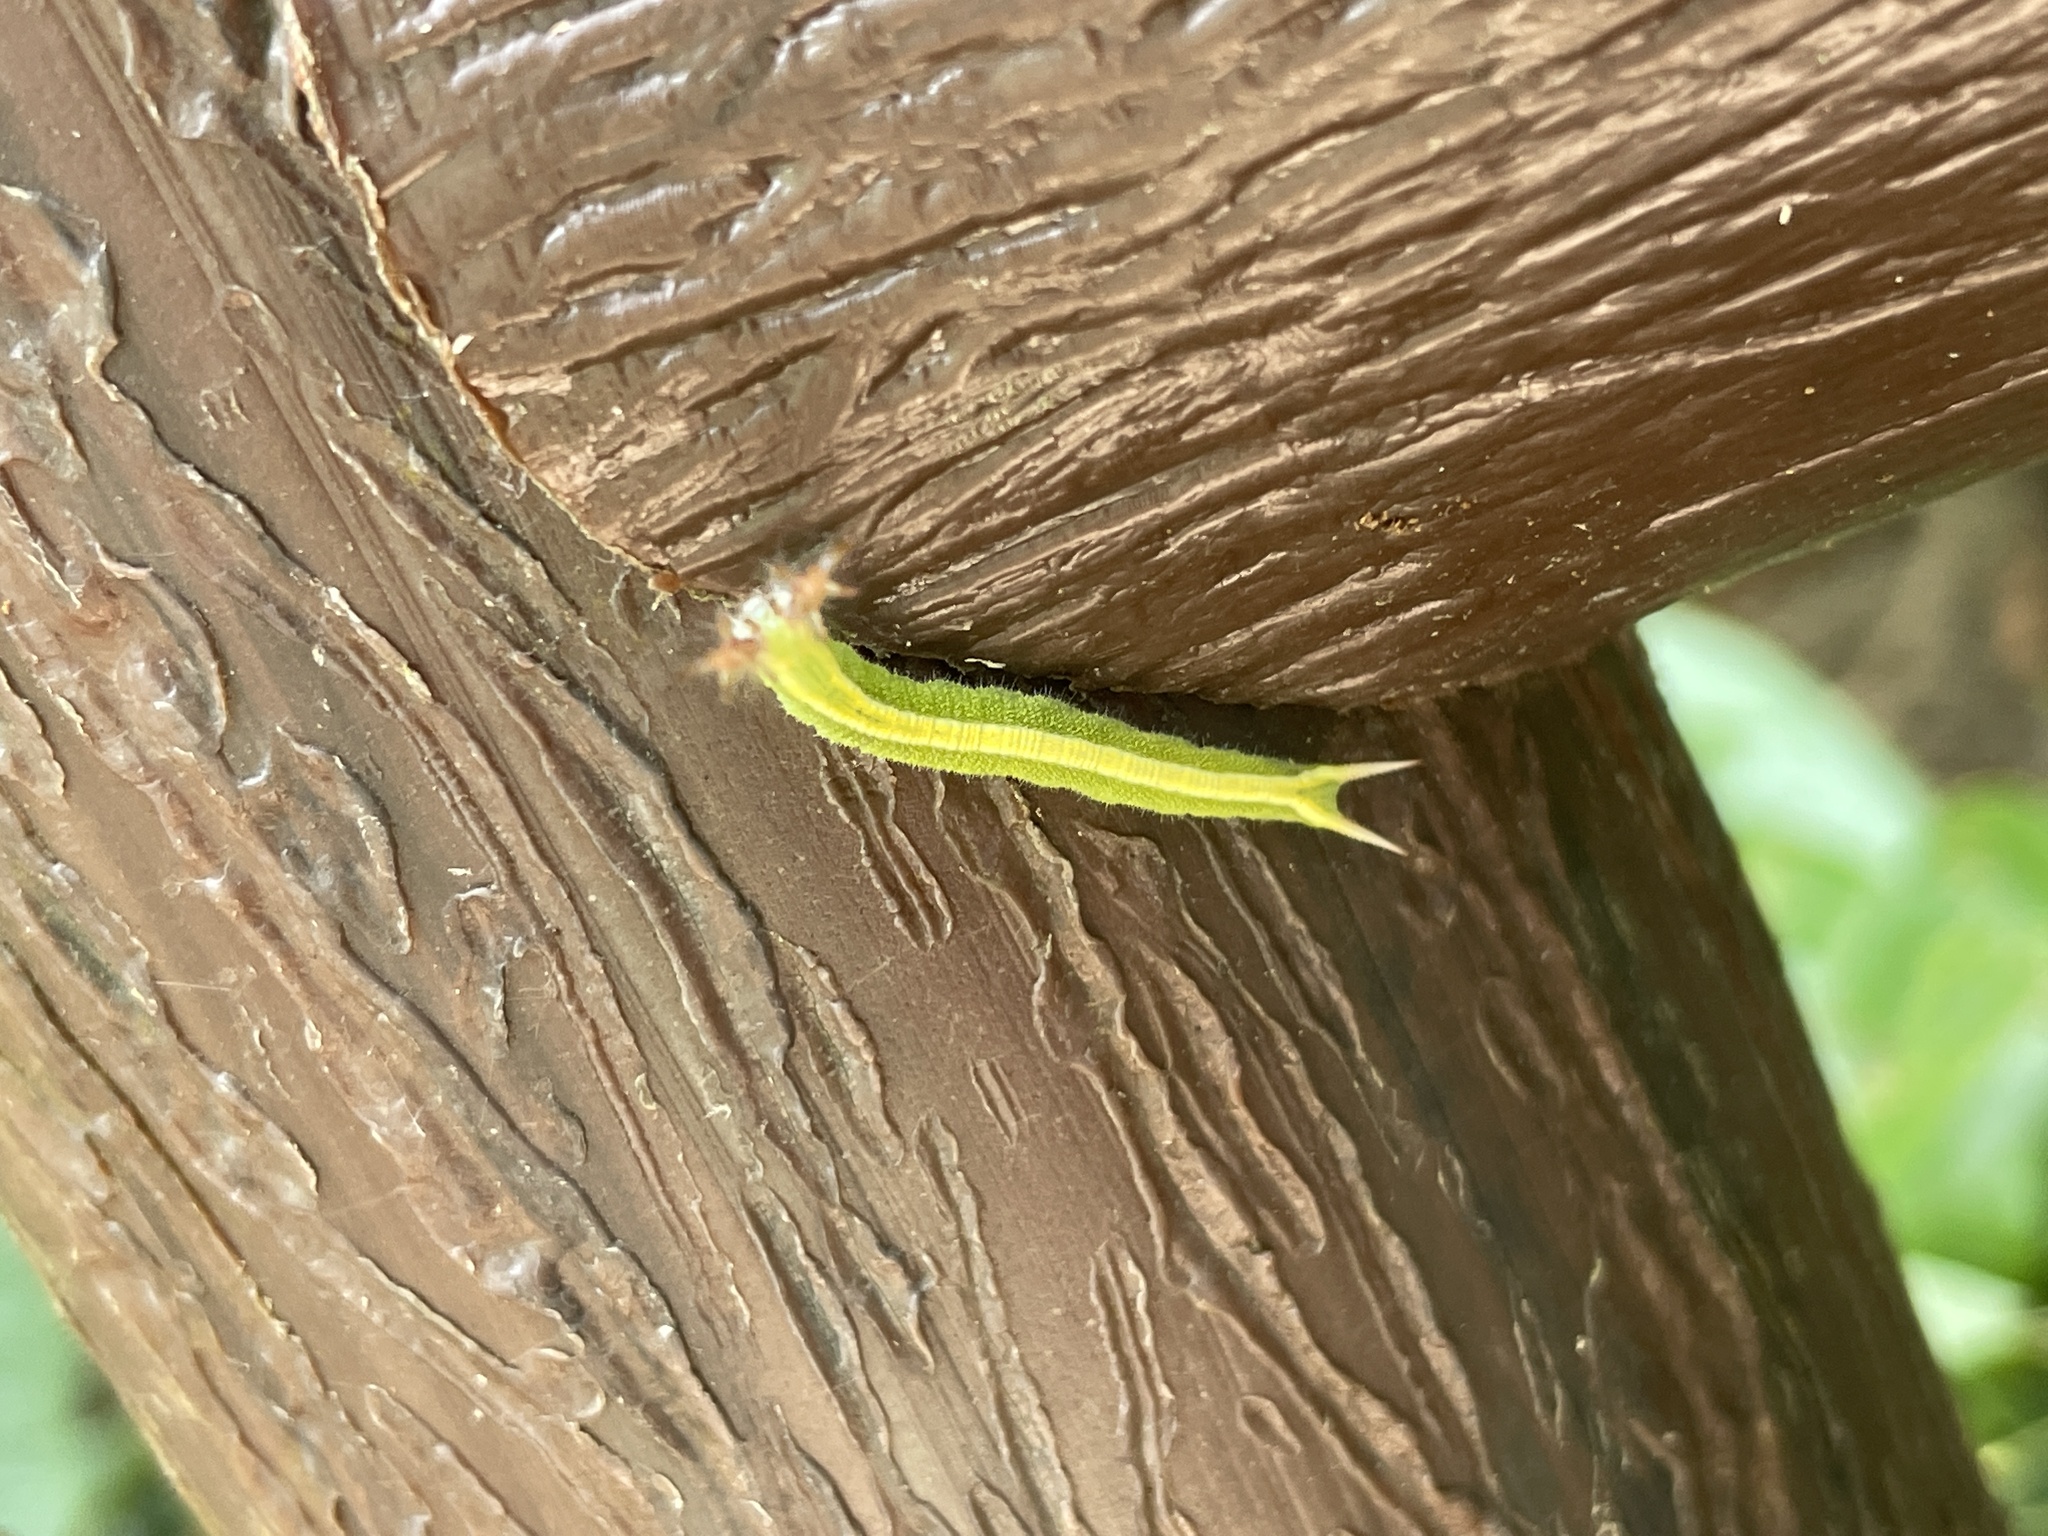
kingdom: Animalia
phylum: Arthropoda
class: Insecta
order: Lepidoptera
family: Nymphalidae
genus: Apatura
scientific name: Apatura Rohana spec
